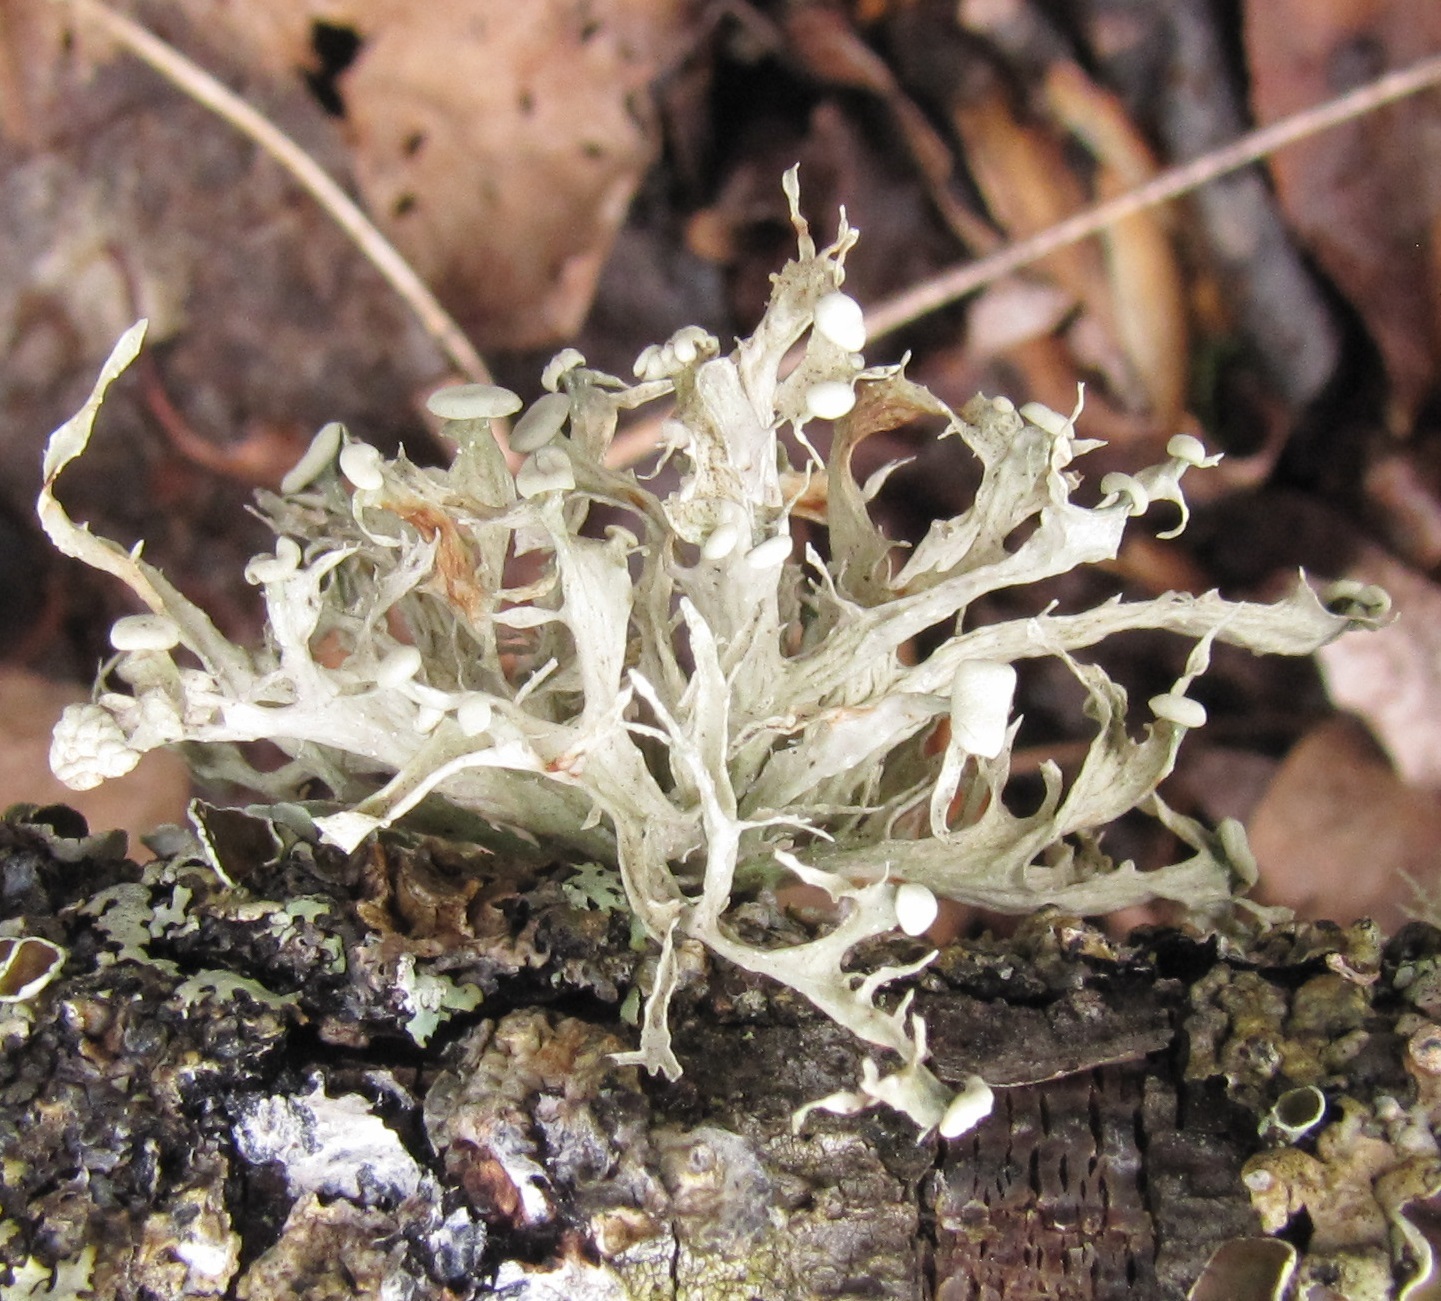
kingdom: Fungi
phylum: Ascomycota
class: Lecanoromycetes
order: Lecanorales
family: Ramalinaceae
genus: Ramalina
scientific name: Ramalina americana
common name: Sinewed bush lichen
